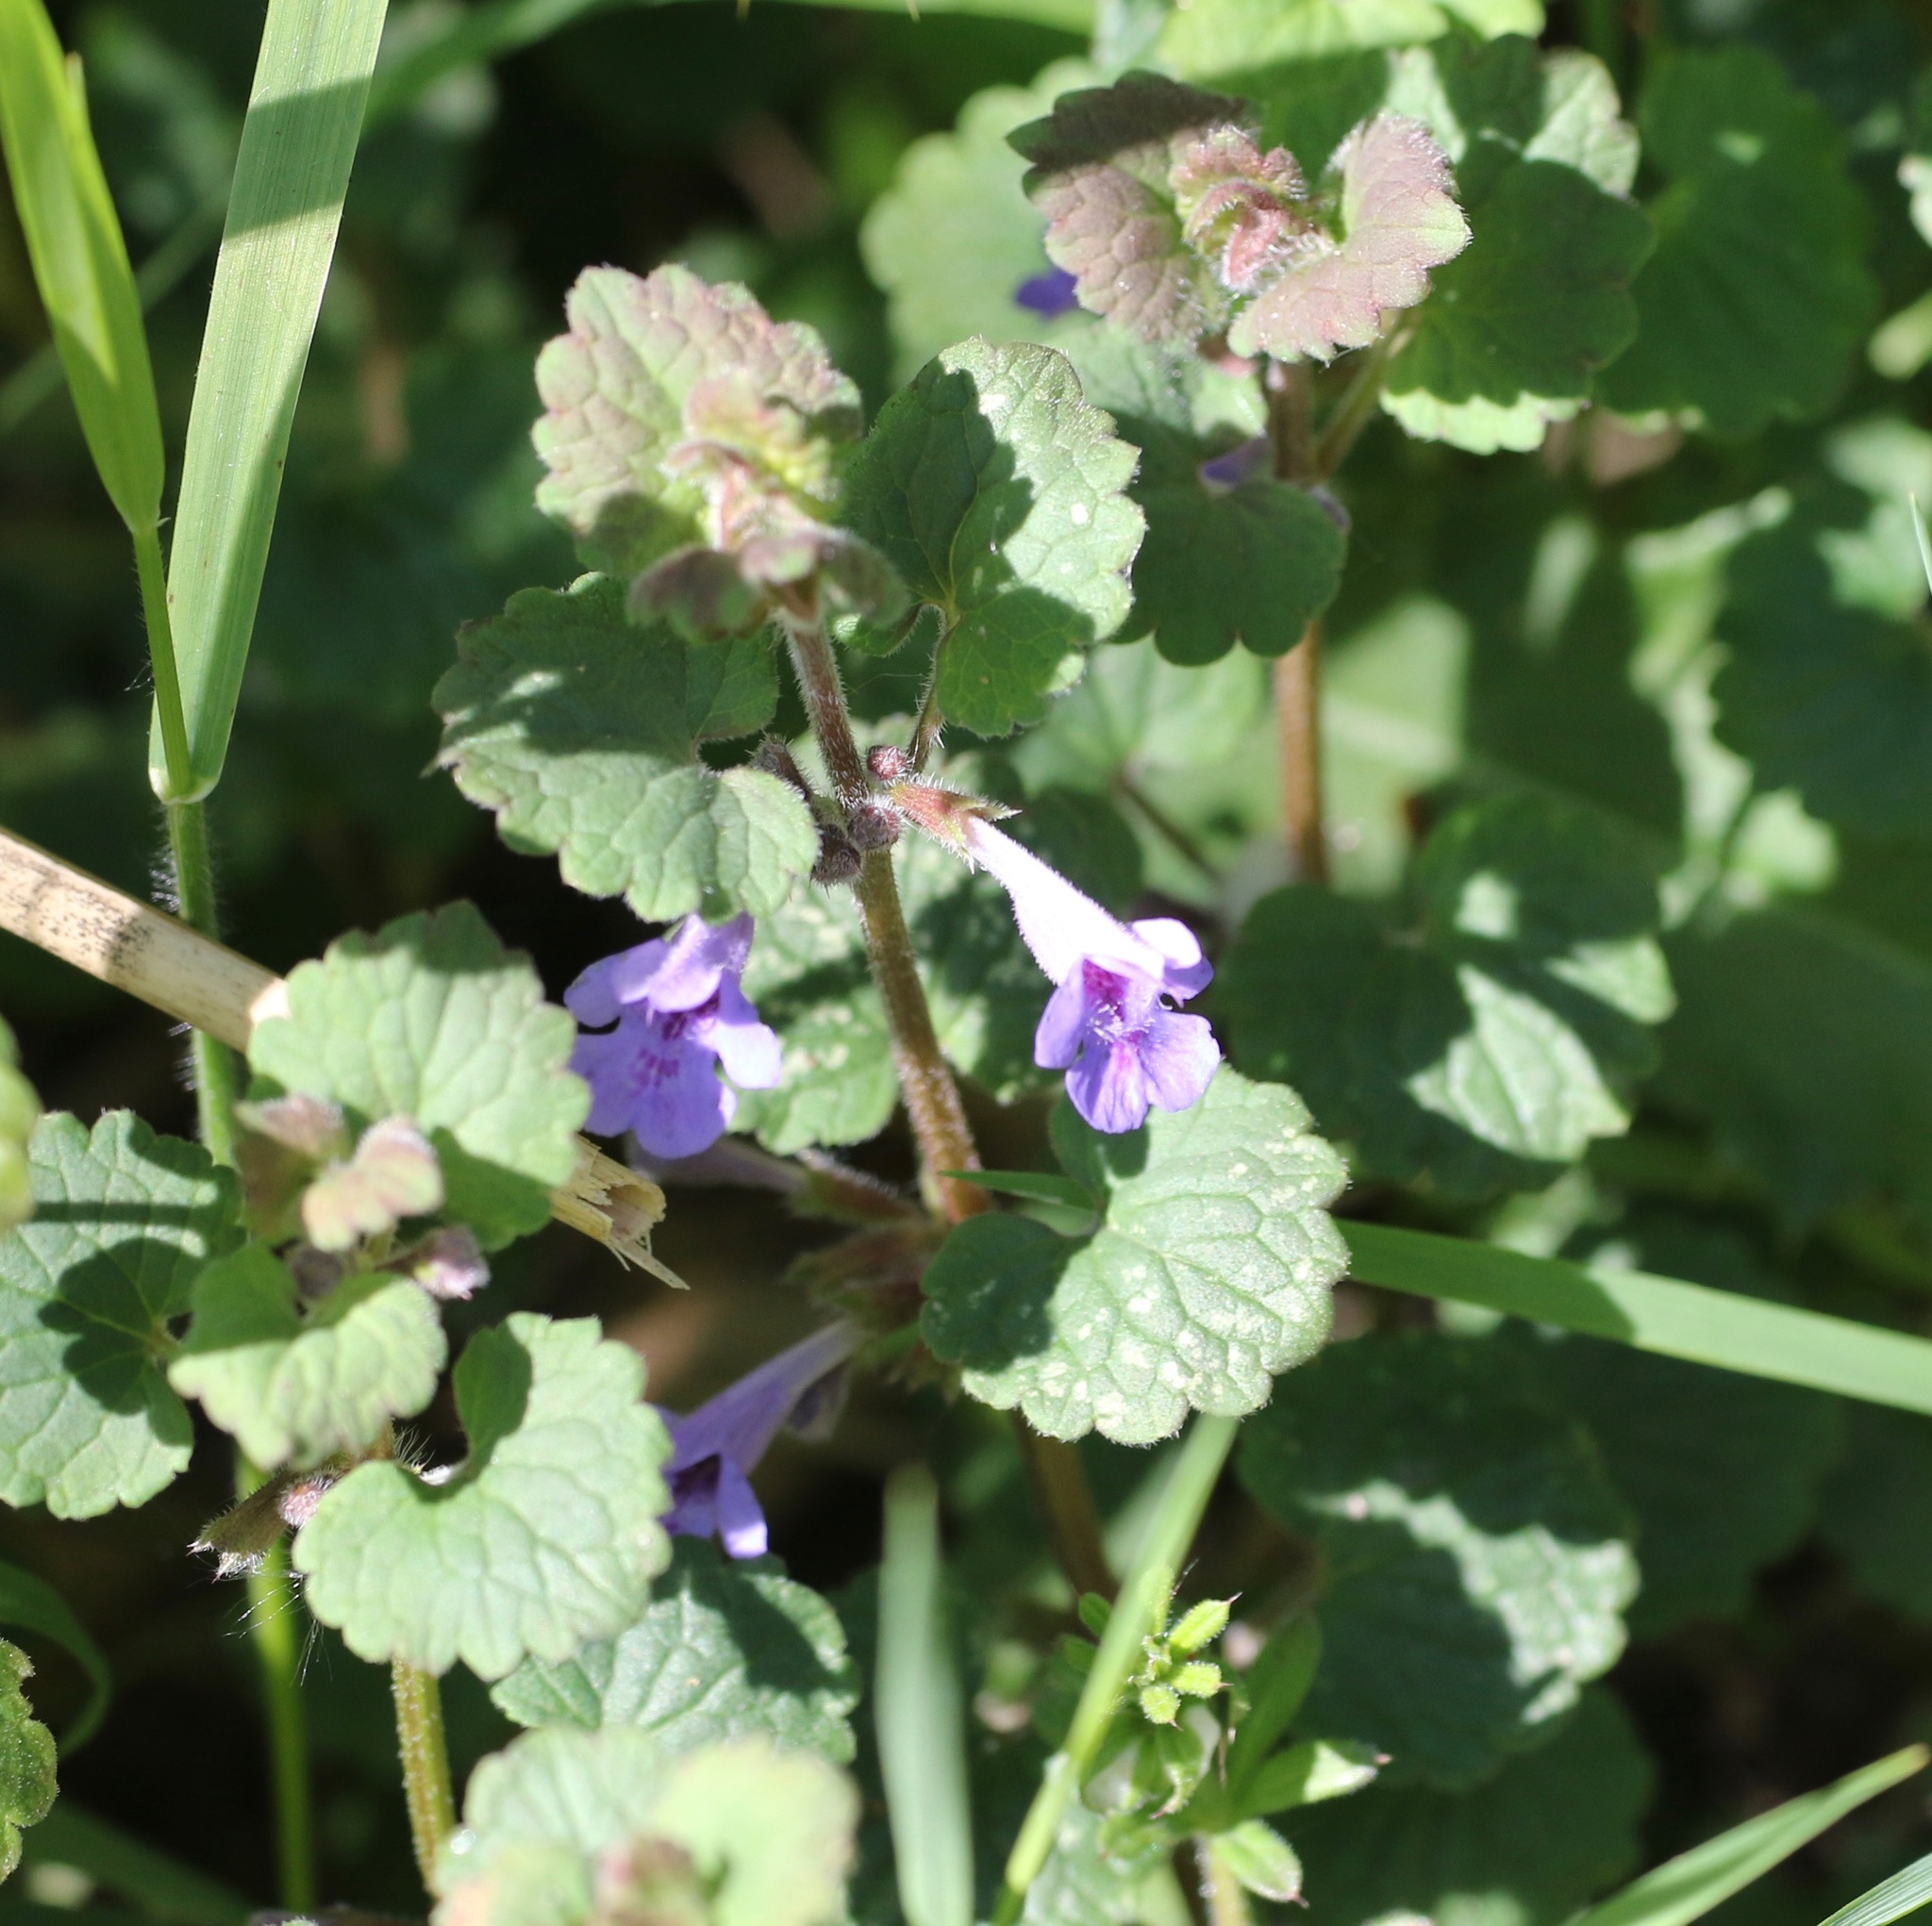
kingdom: Plantae
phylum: Tracheophyta
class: Magnoliopsida
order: Lamiales
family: Lamiaceae
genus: Glechoma
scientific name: Glechoma hederacea
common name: Ground ivy
